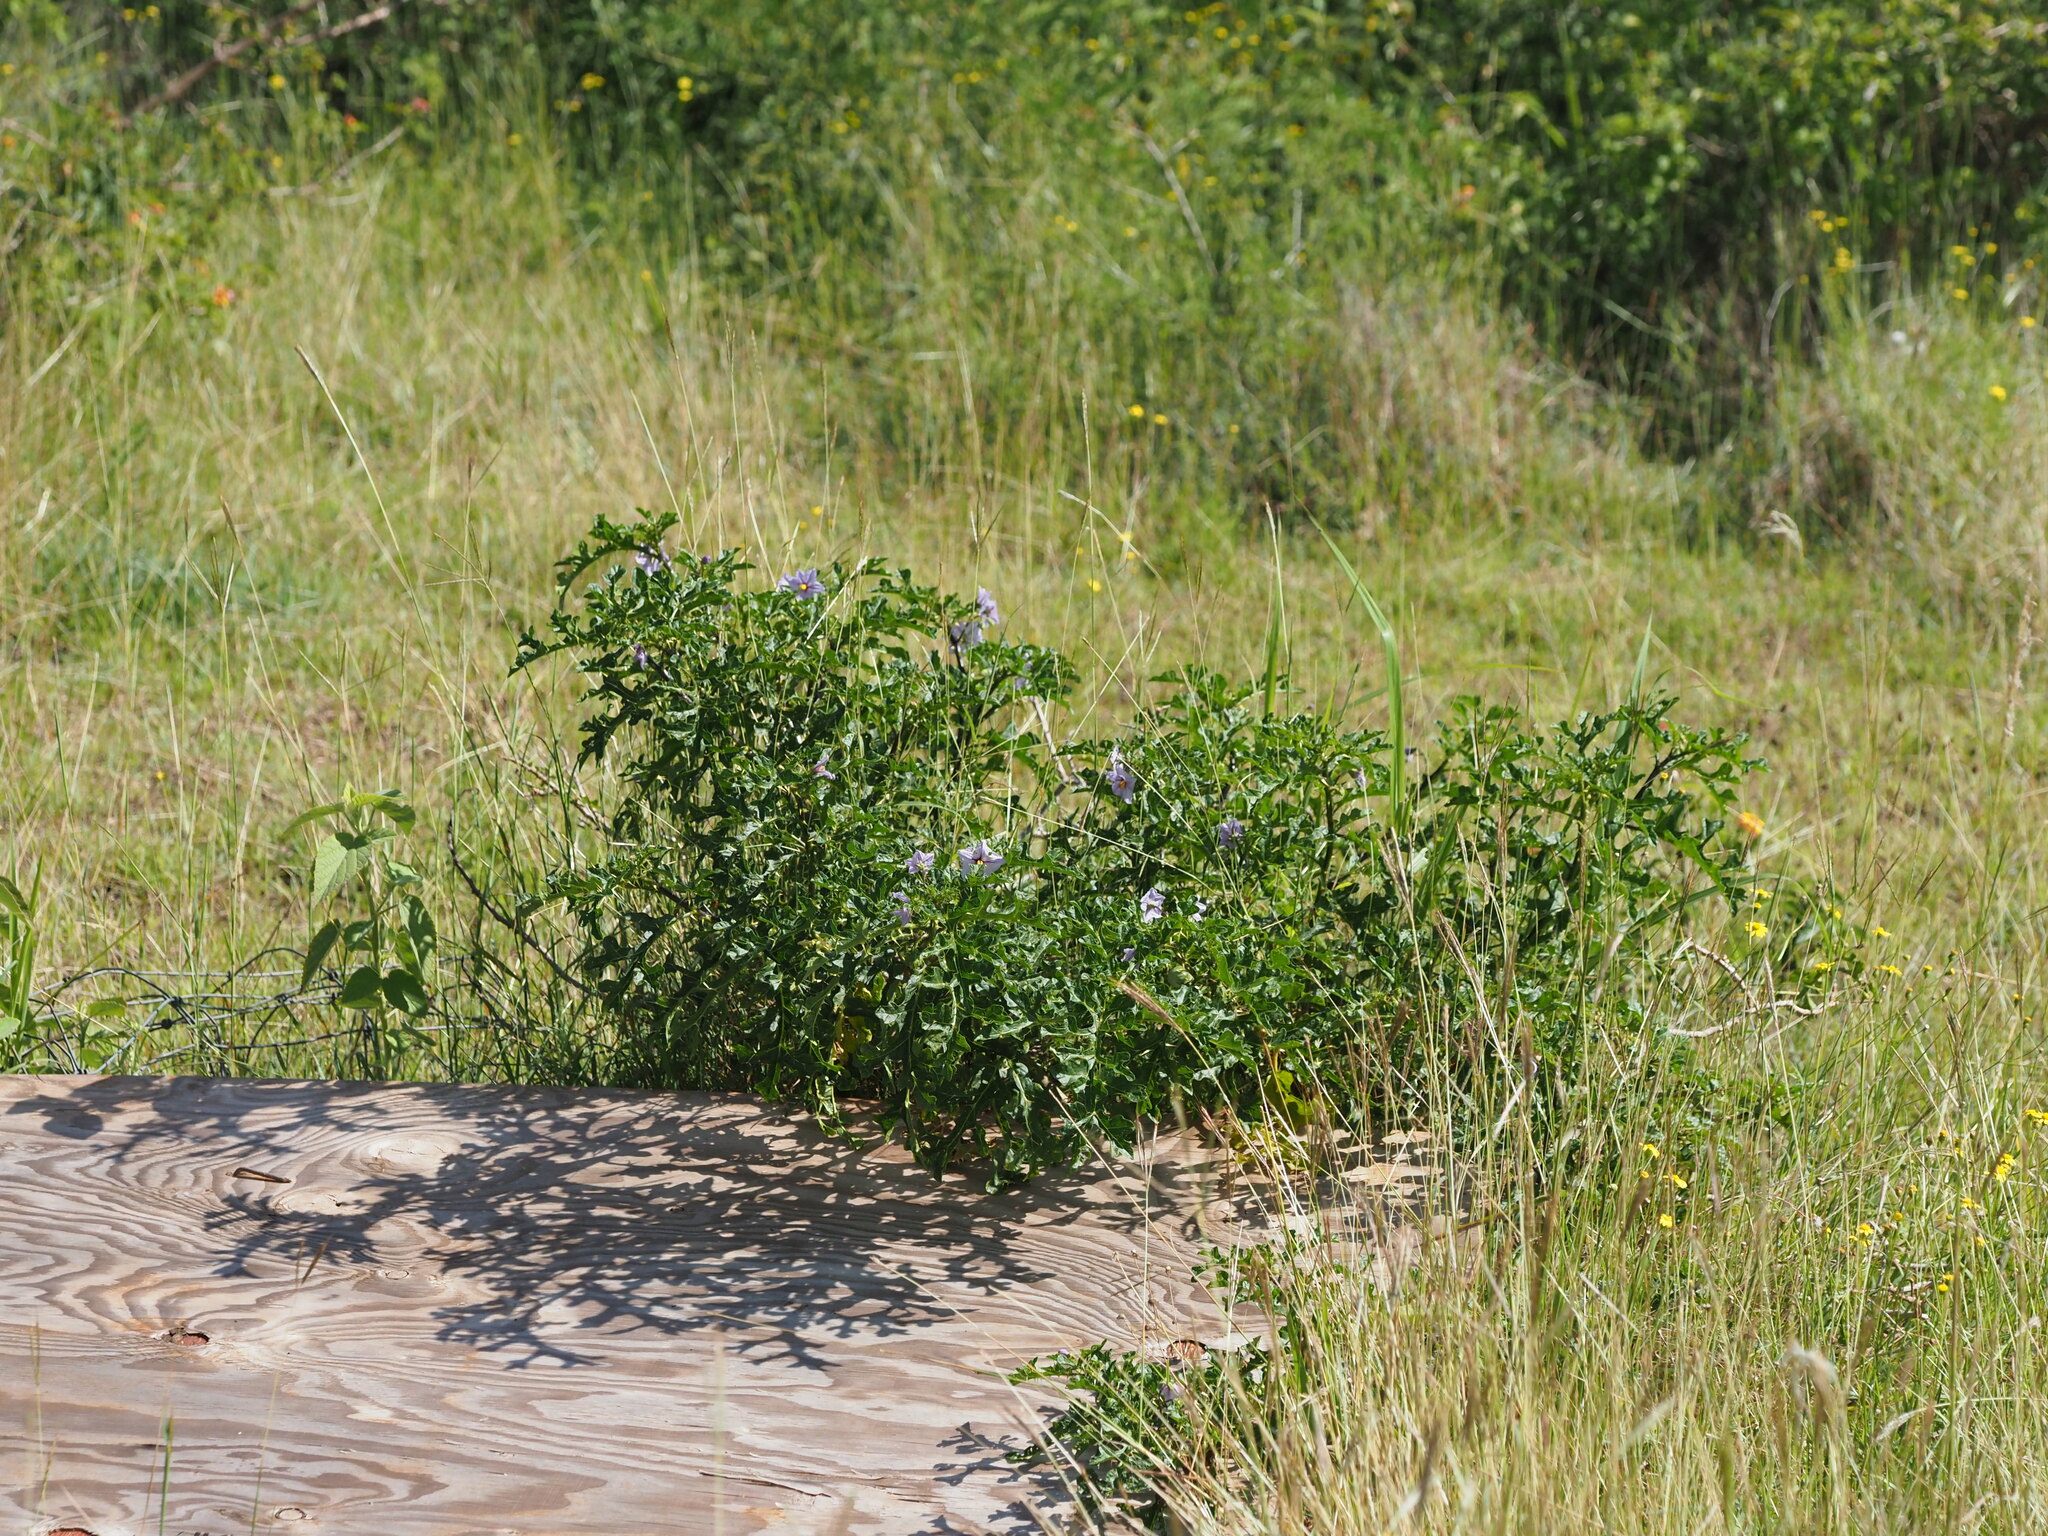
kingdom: Plantae
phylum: Tracheophyta
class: Magnoliopsida
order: Solanales
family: Solanaceae
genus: Solanum
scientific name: Solanum linnaeanum
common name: Nightshade
